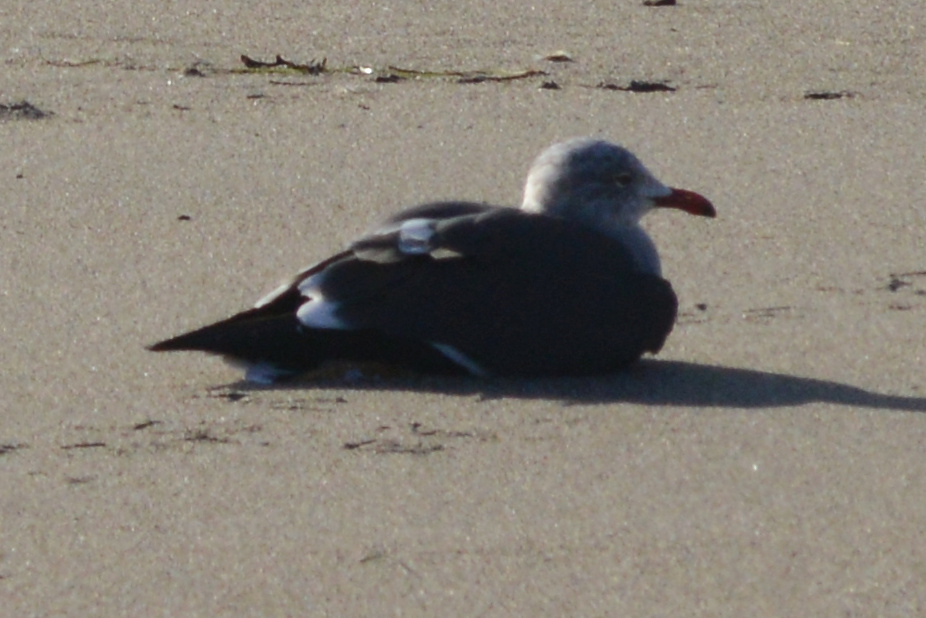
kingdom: Animalia
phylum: Chordata
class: Aves
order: Charadriiformes
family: Laridae
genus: Larus
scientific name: Larus heermanni
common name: Heermann's gull
